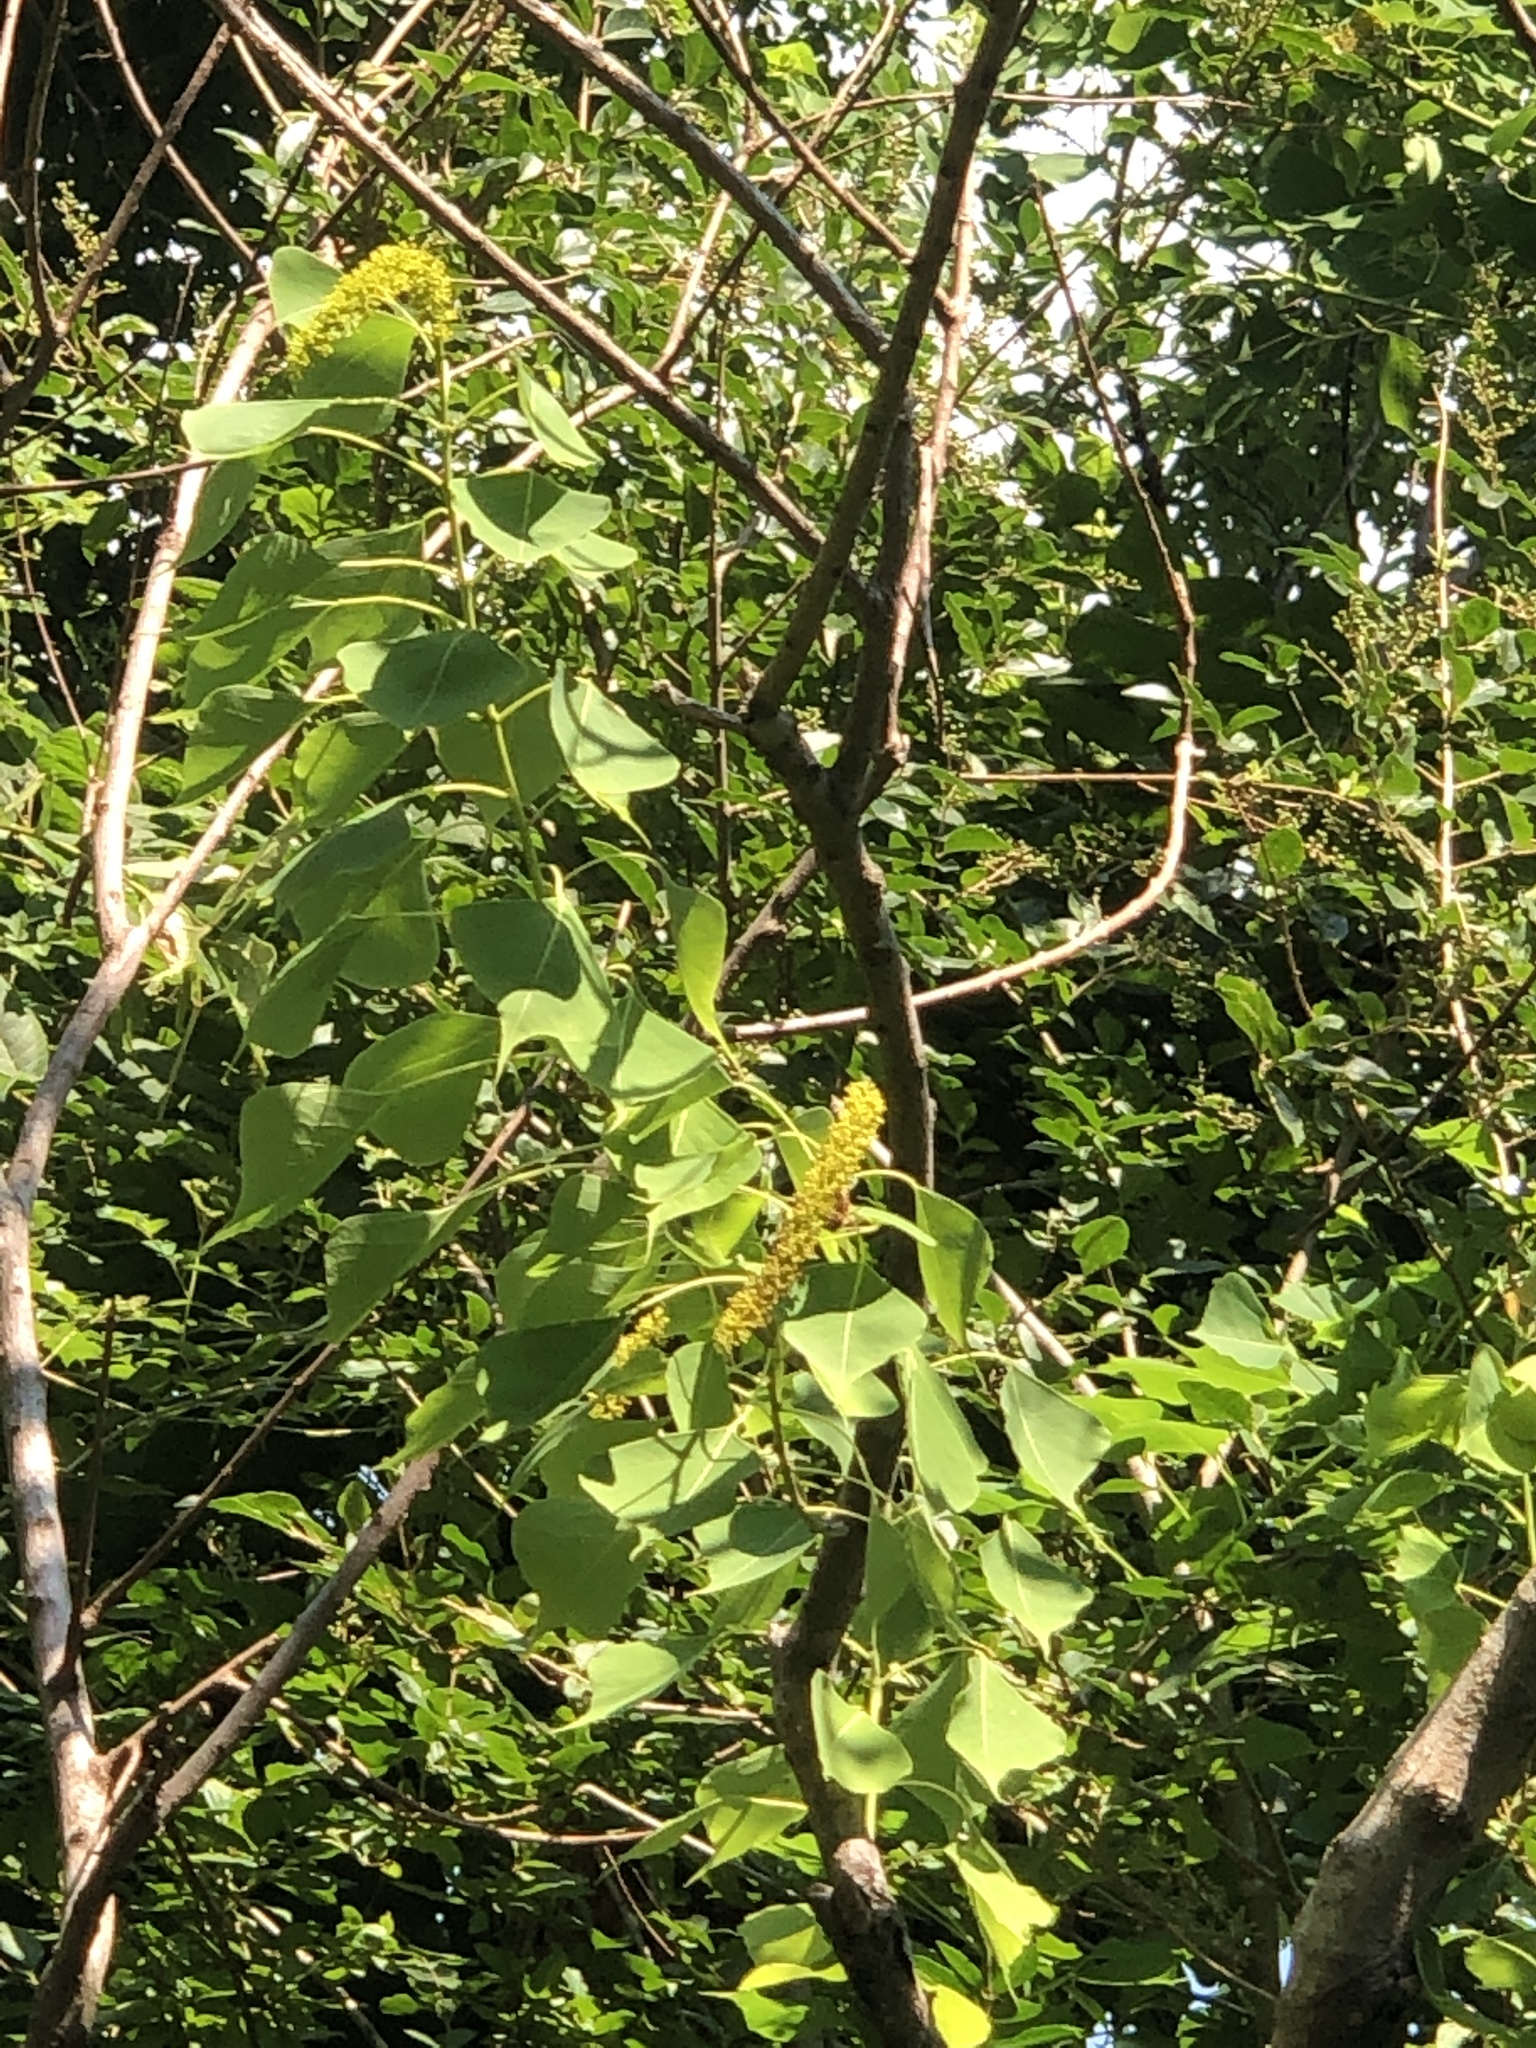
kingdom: Plantae
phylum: Tracheophyta
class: Magnoliopsida
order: Malpighiales
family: Euphorbiaceae
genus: Triadica
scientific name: Triadica sebifera
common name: Chinese tallow
